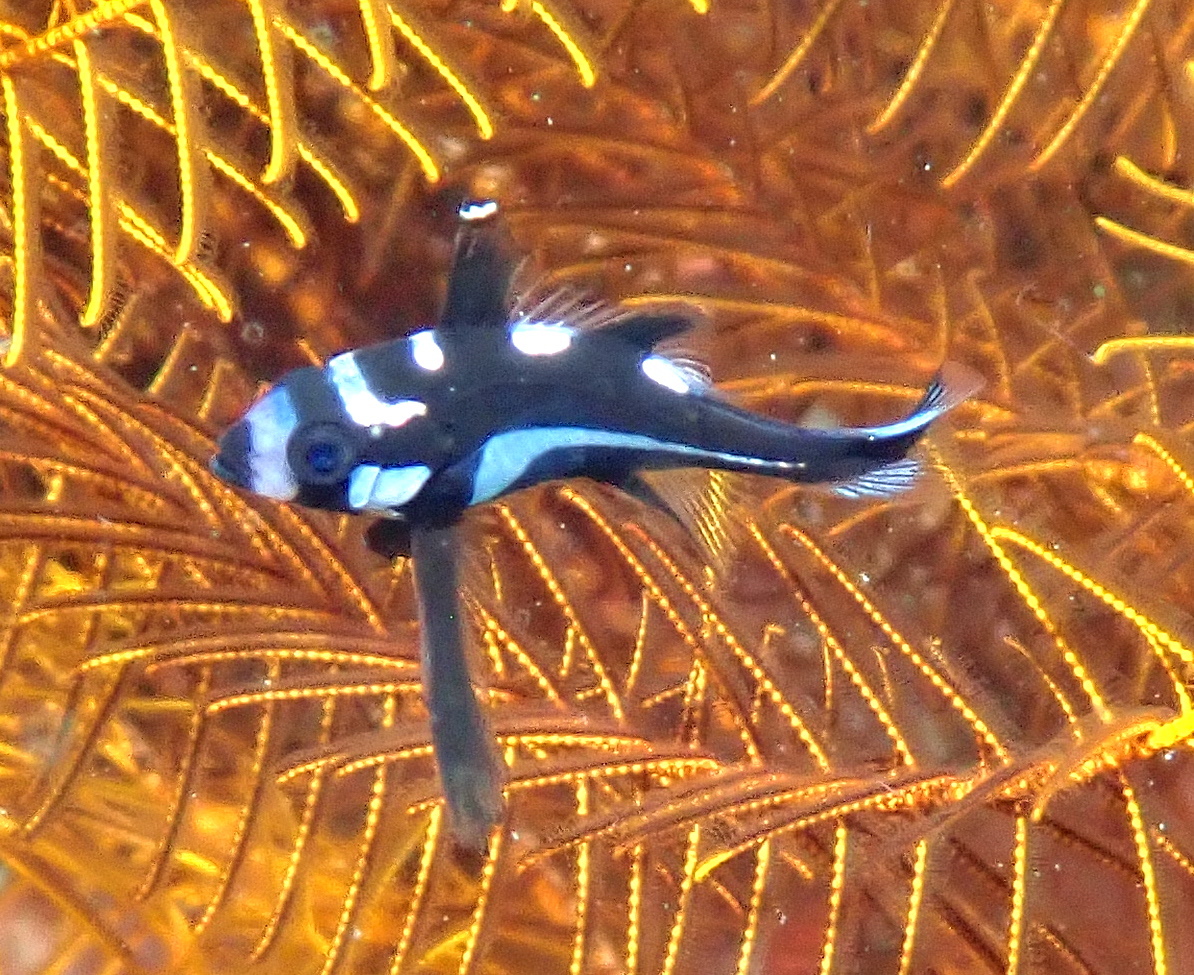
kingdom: Animalia
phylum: Chordata
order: Perciformes
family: Lutjanidae
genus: Macolor
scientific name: Macolor macularis
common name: Midnight snapper
